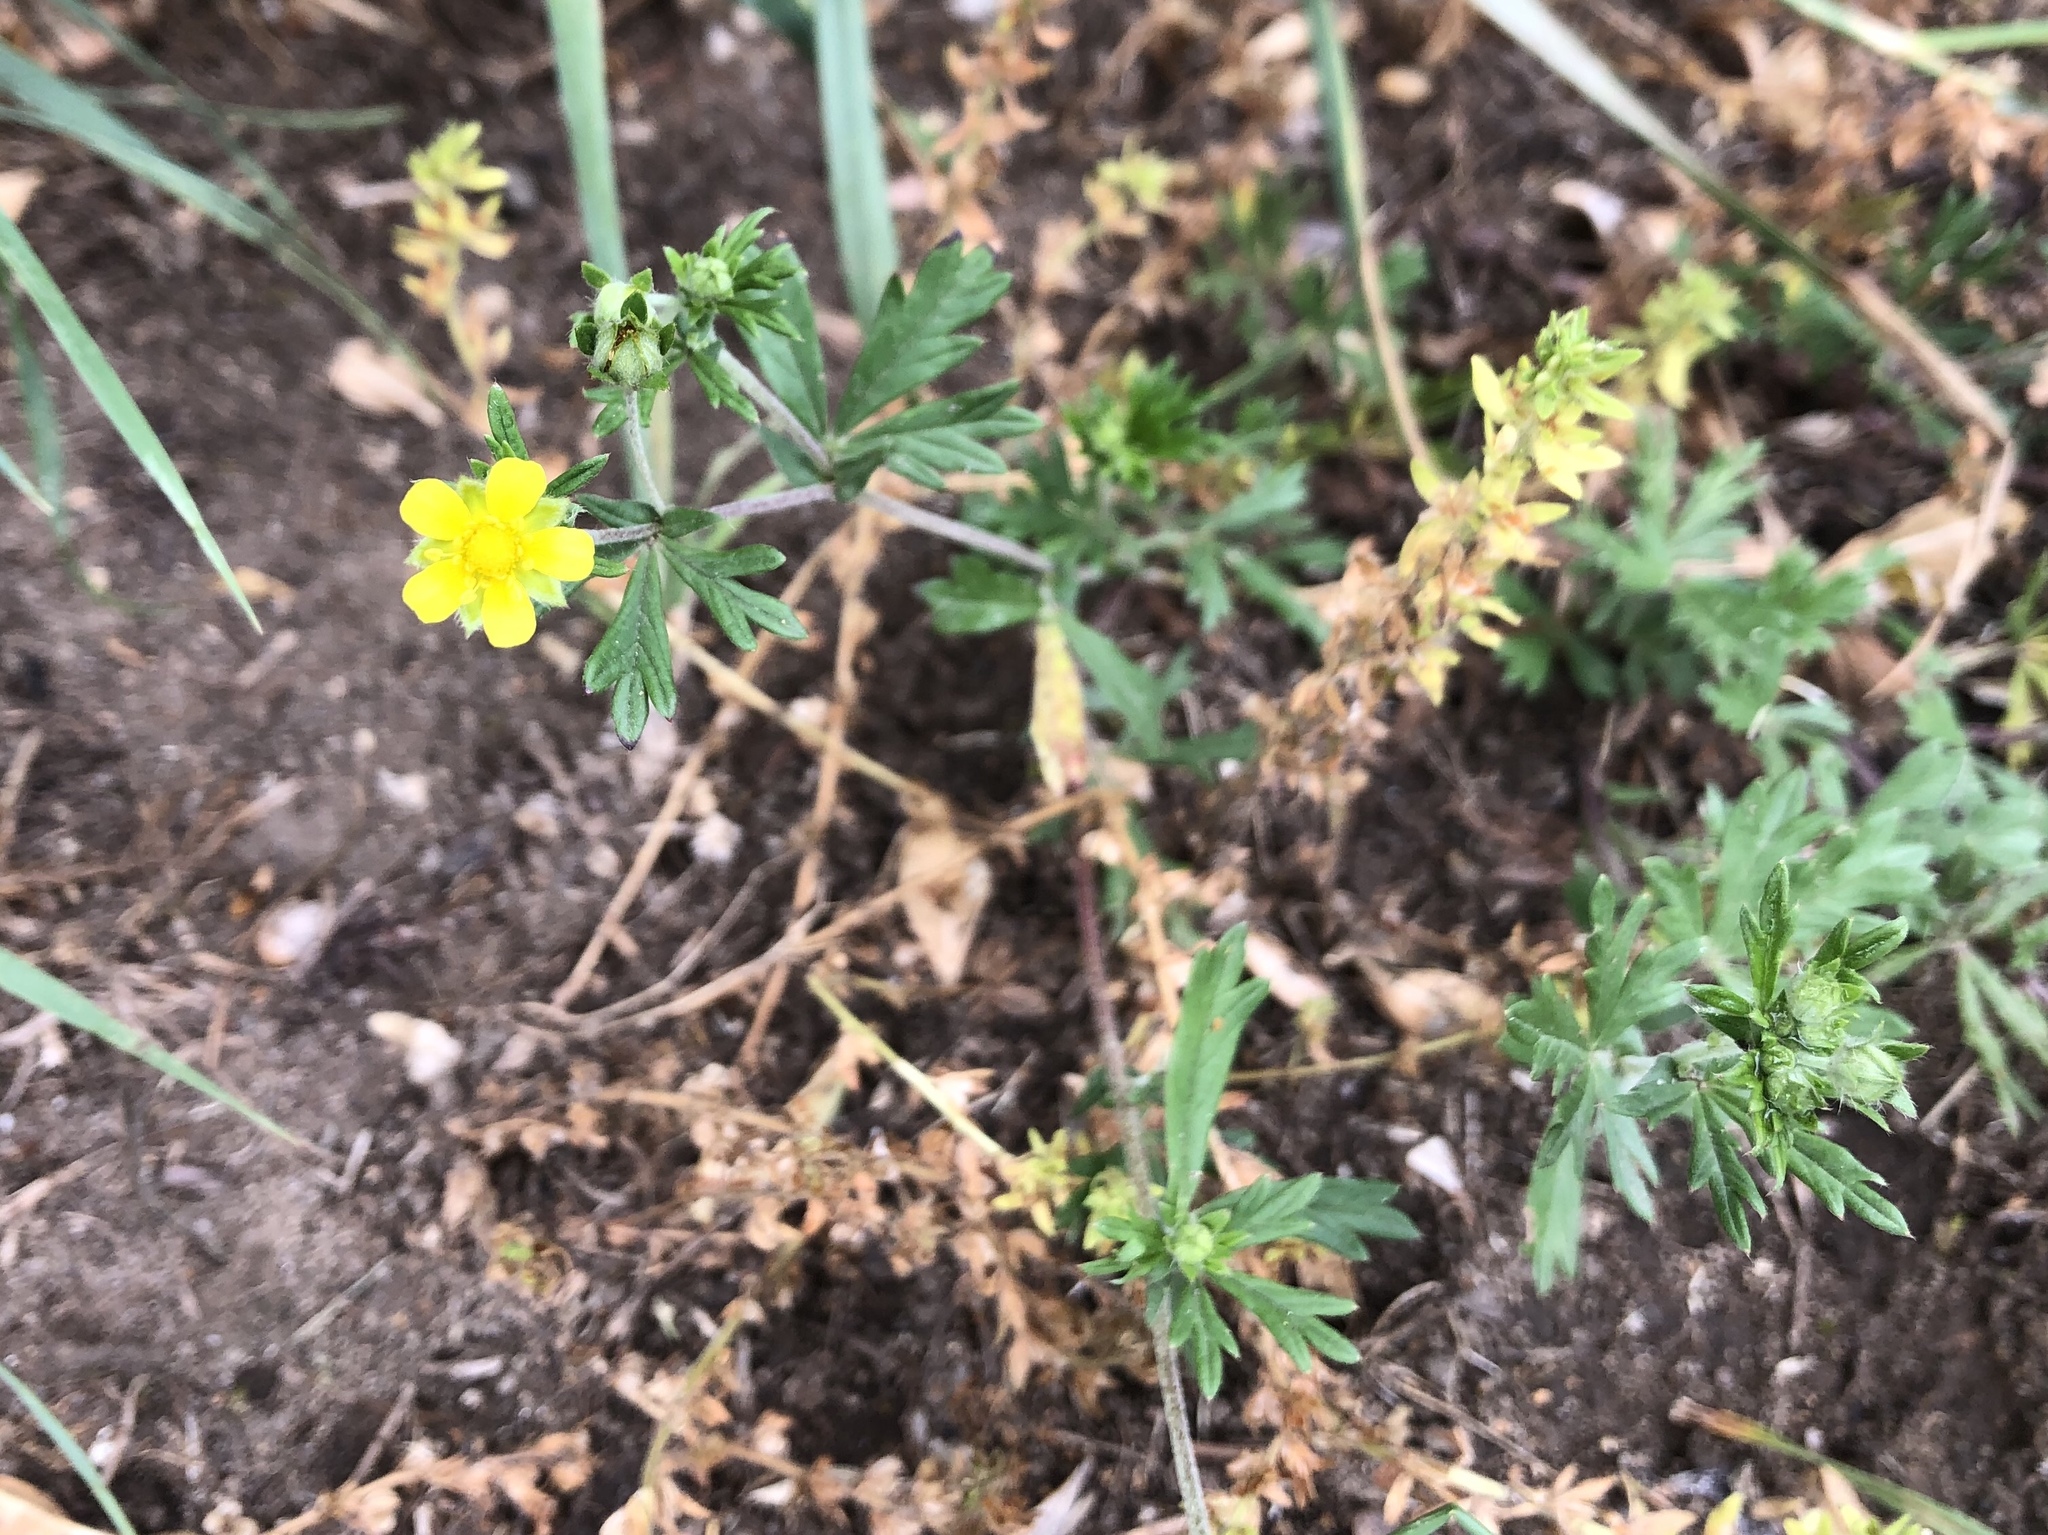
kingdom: Plantae
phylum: Tracheophyta
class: Magnoliopsida
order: Rosales
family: Rosaceae
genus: Potentilla
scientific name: Potentilla argentea
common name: Hoary cinquefoil
